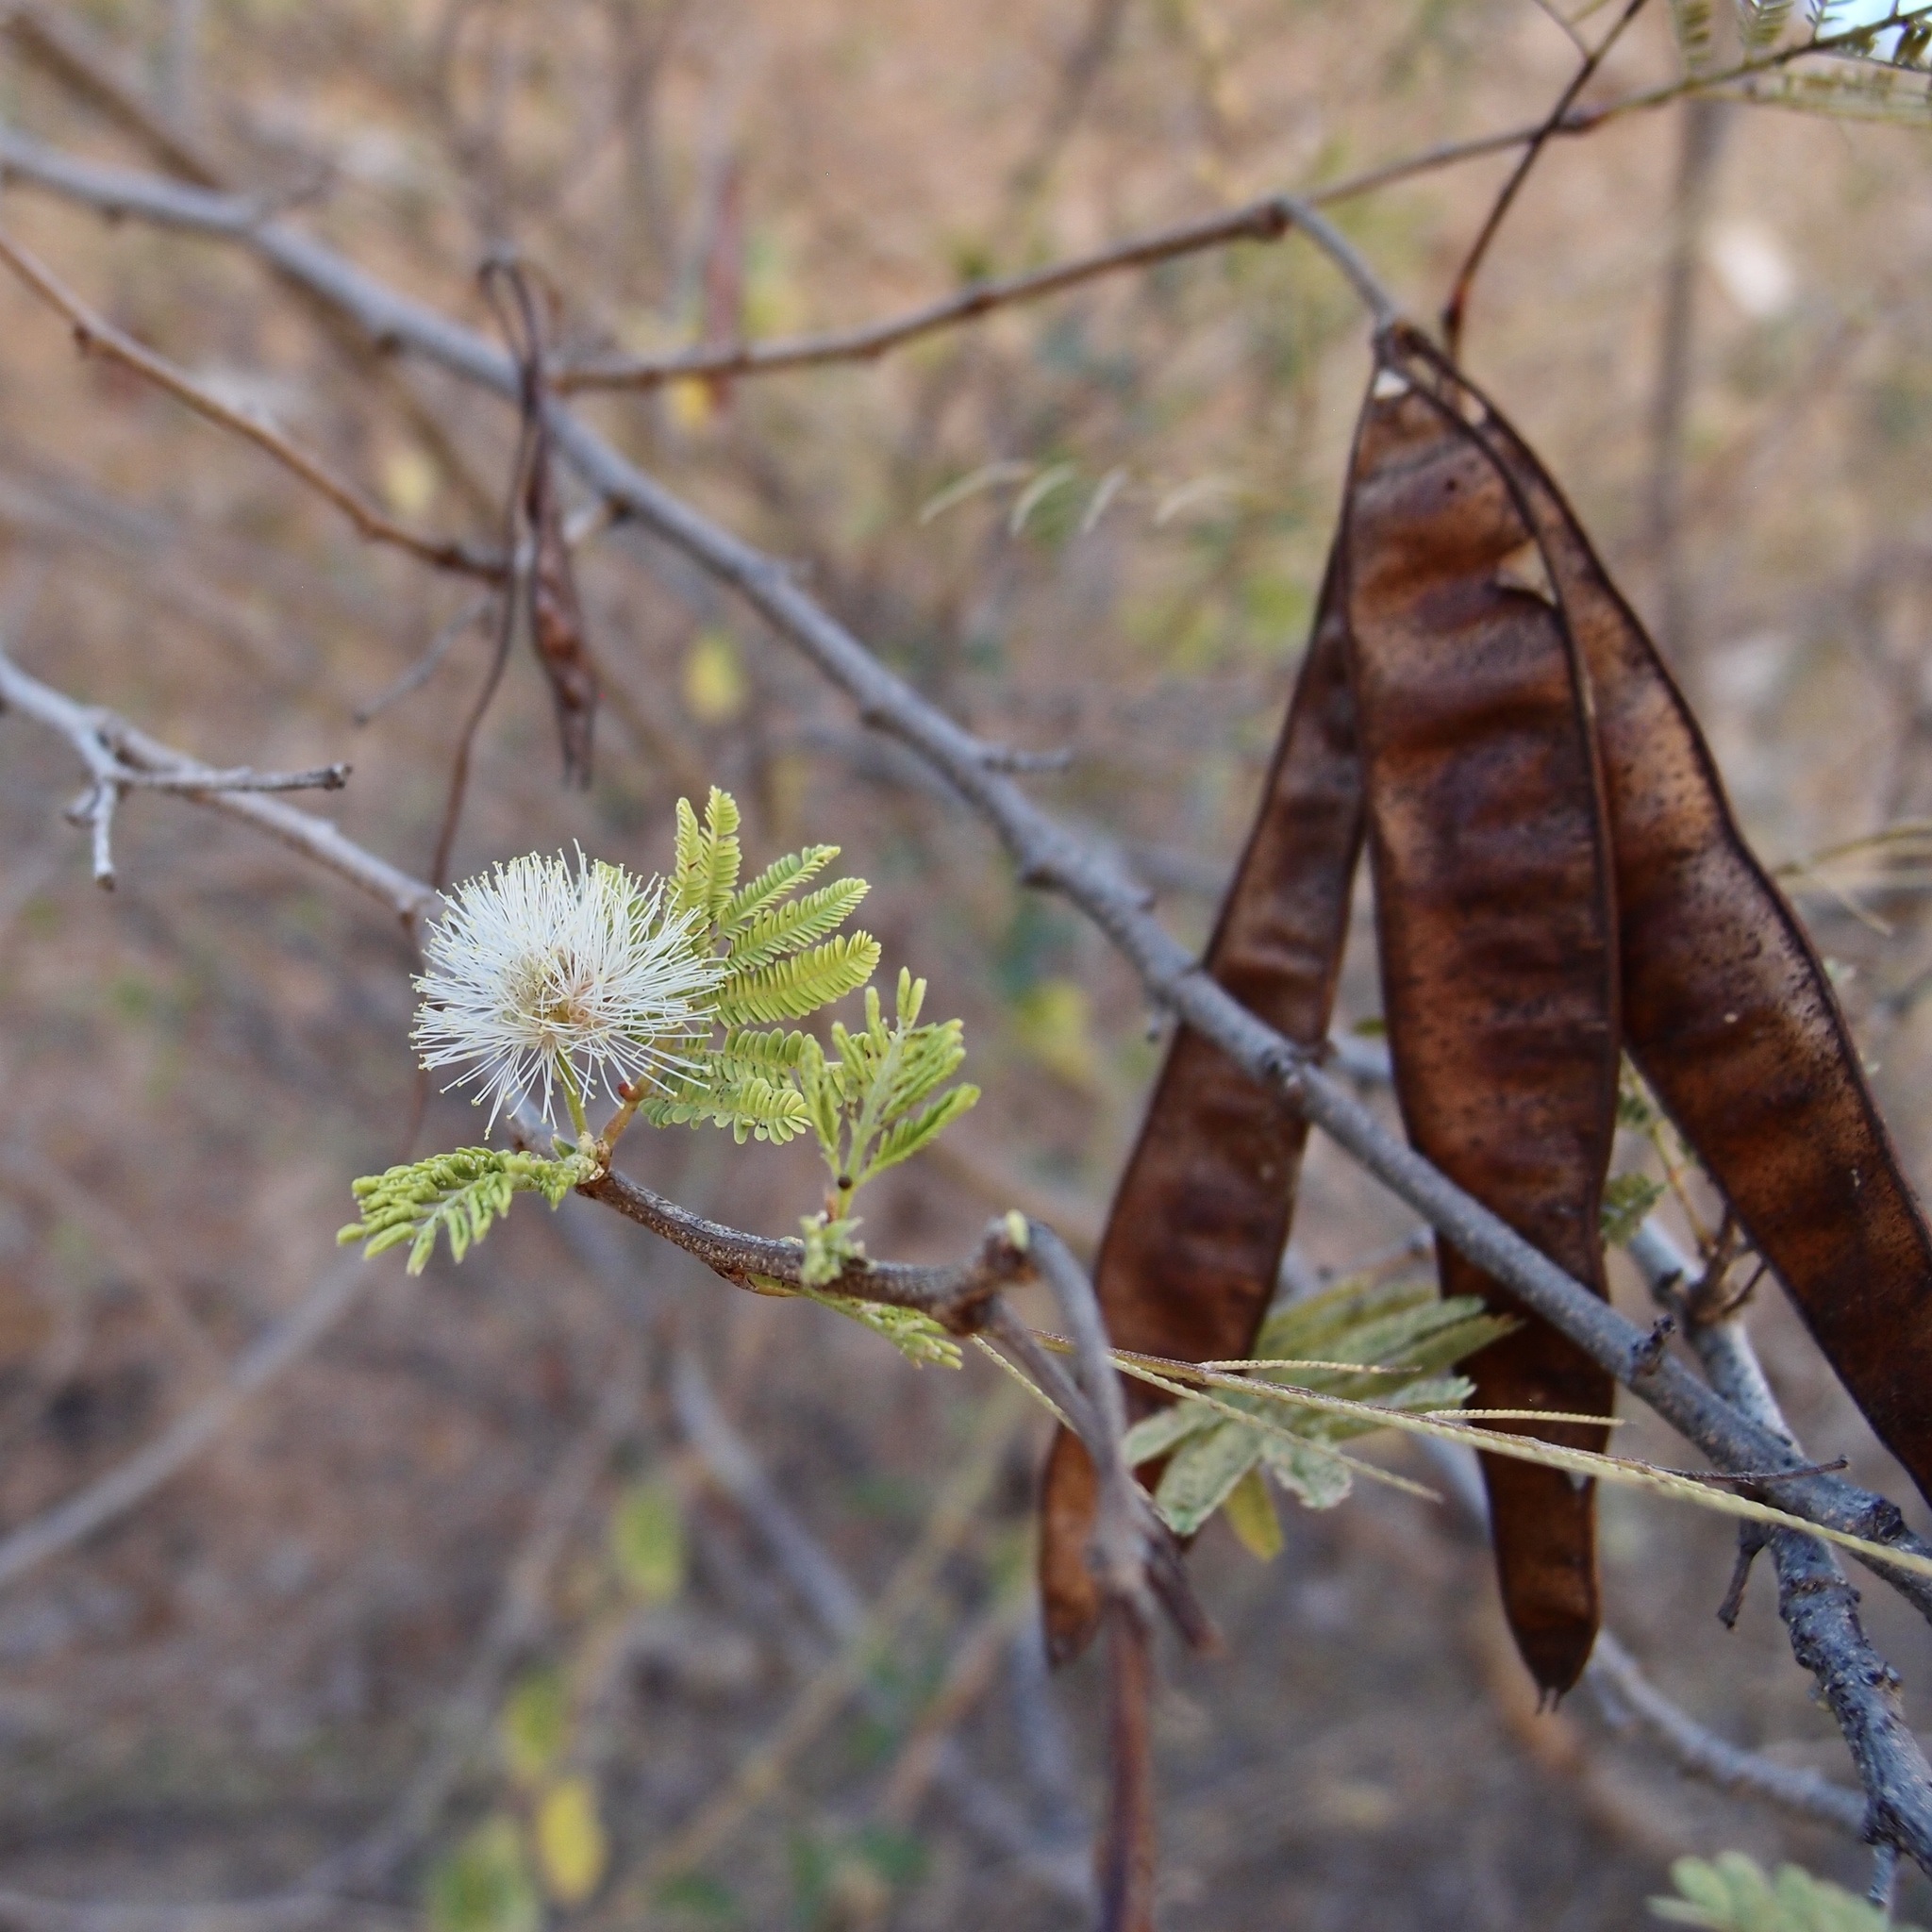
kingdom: Plantae
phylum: Tracheophyta
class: Magnoliopsida
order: Fabales
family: Fabaceae
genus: Lysiloma
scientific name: Lysiloma divaricatum
